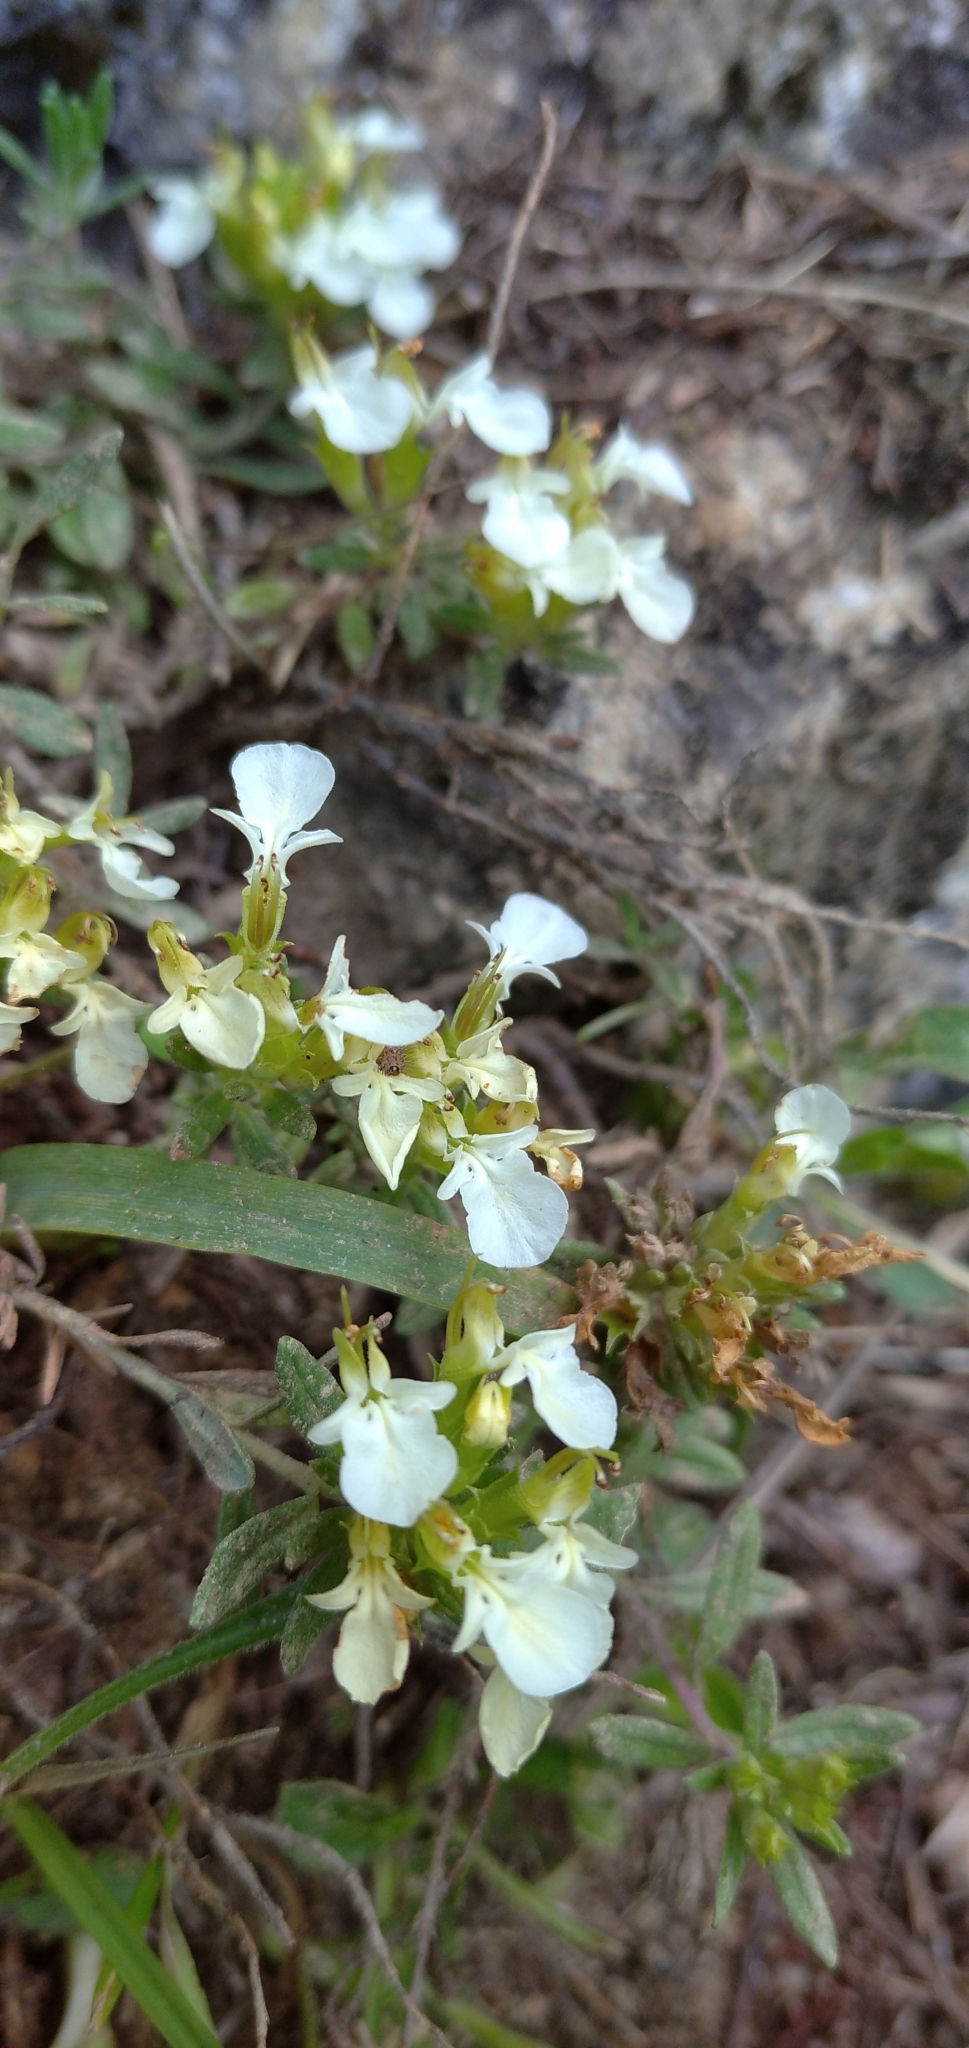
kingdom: Plantae
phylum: Tracheophyta
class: Magnoliopsida
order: Lamiales
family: Lamiaceae
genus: Teucrium
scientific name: Teucrium montanum
